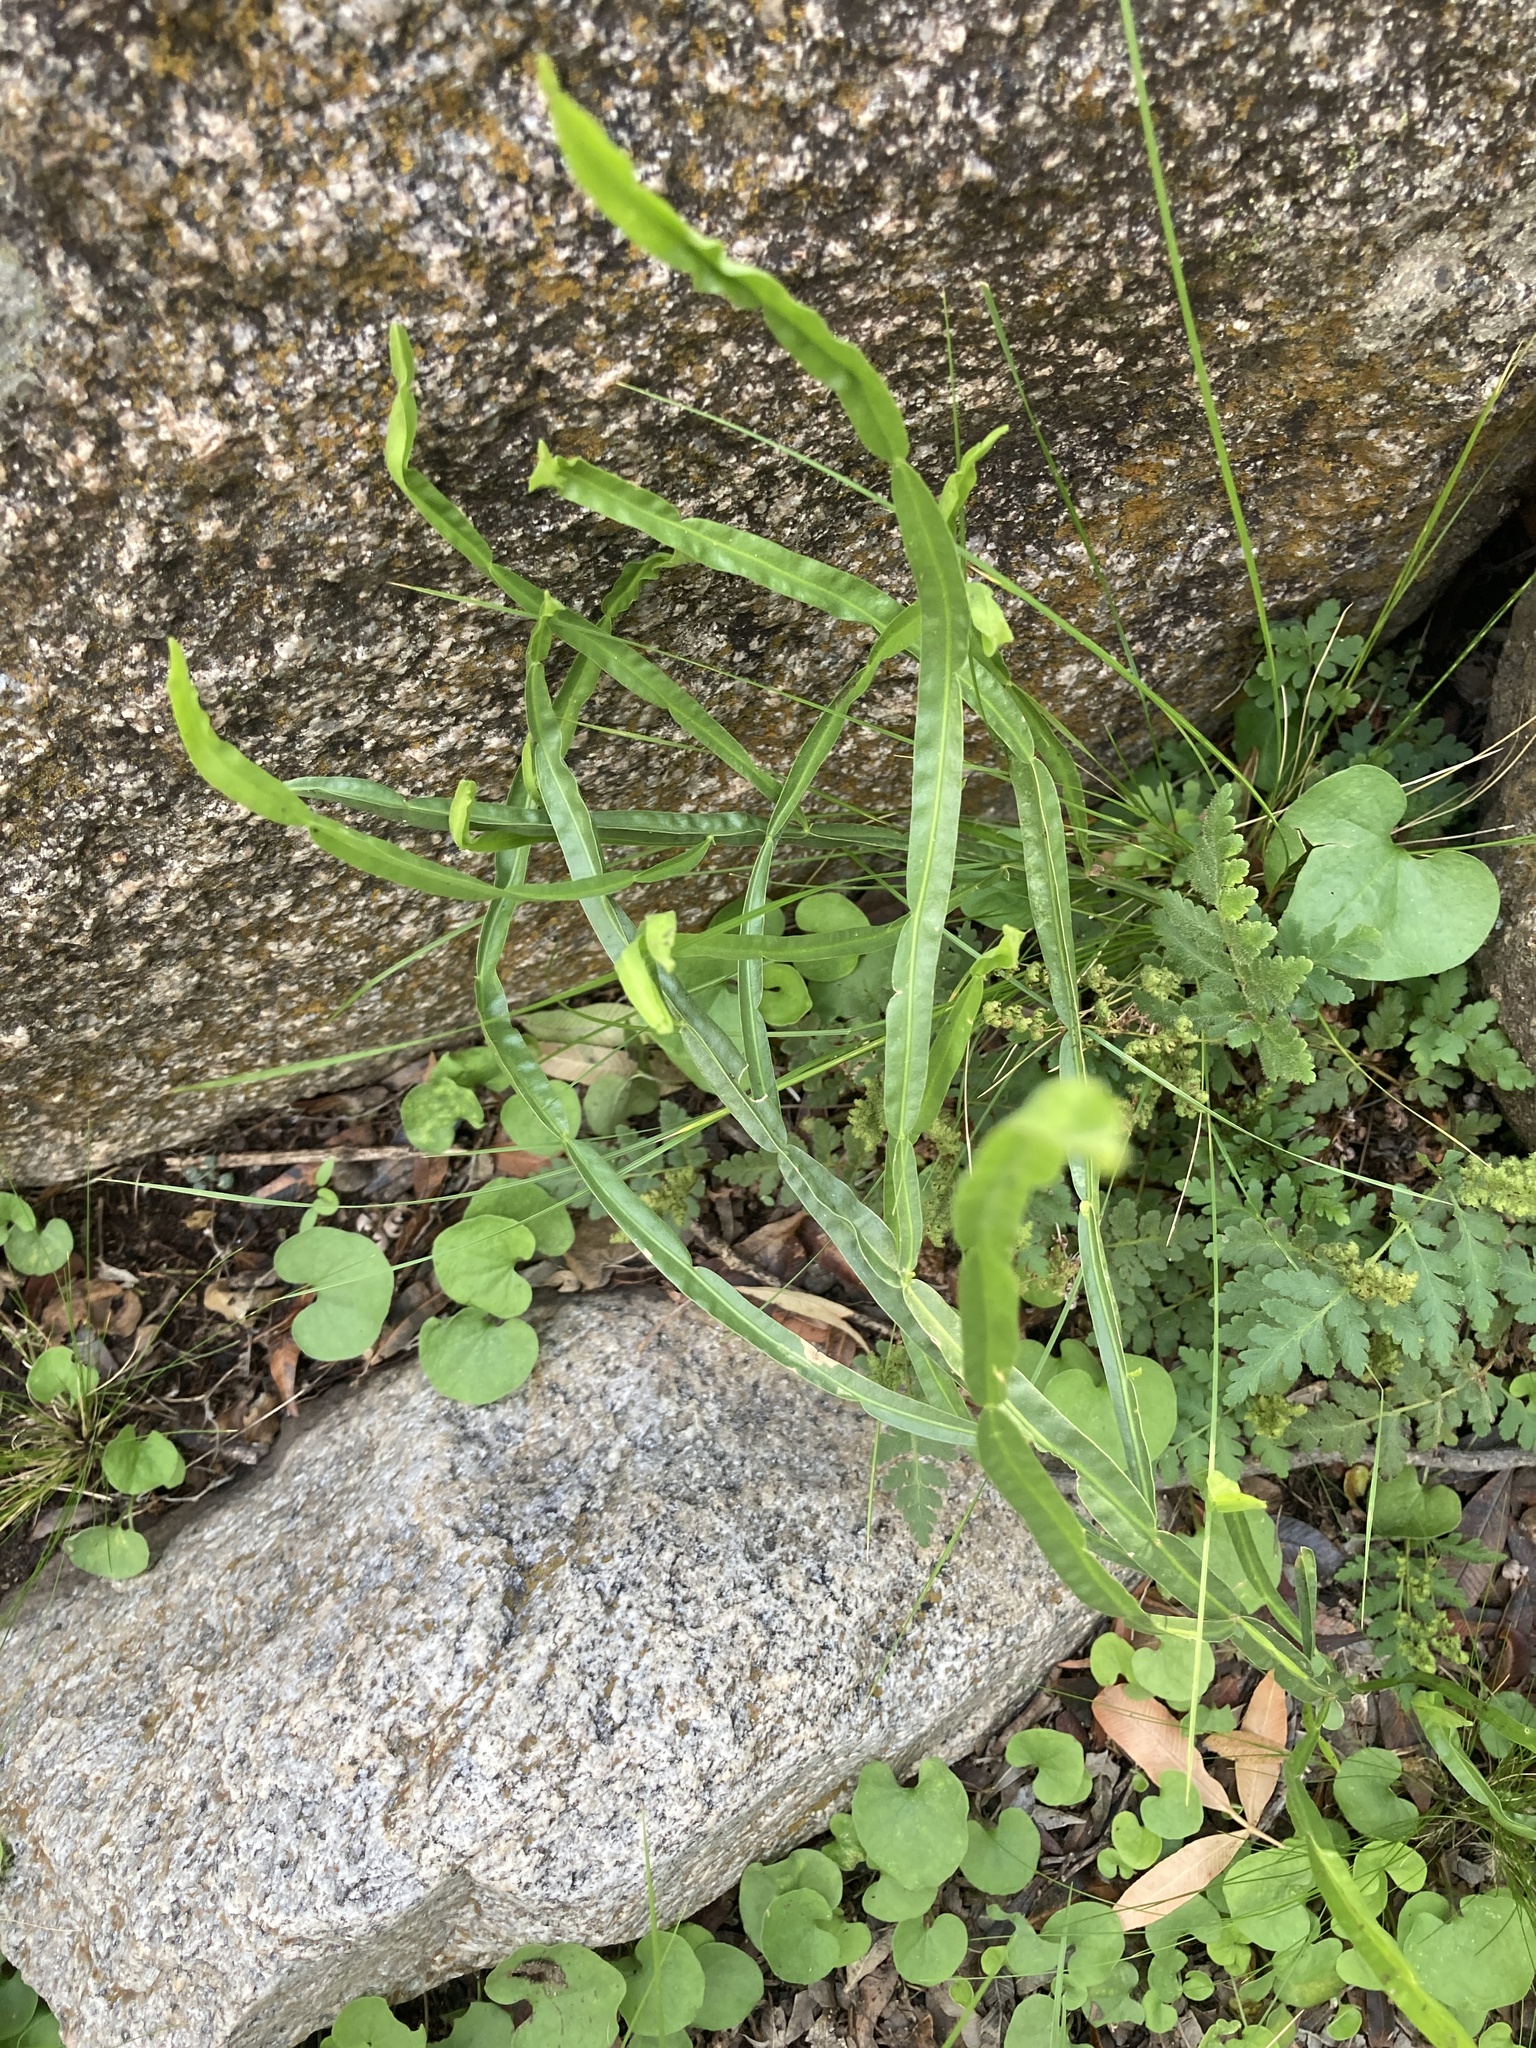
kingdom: Plantae
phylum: Tracheophyta
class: Magnoliopsida
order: Asterales
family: Asteraceae
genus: Baccharis
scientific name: Baccharis trimera
